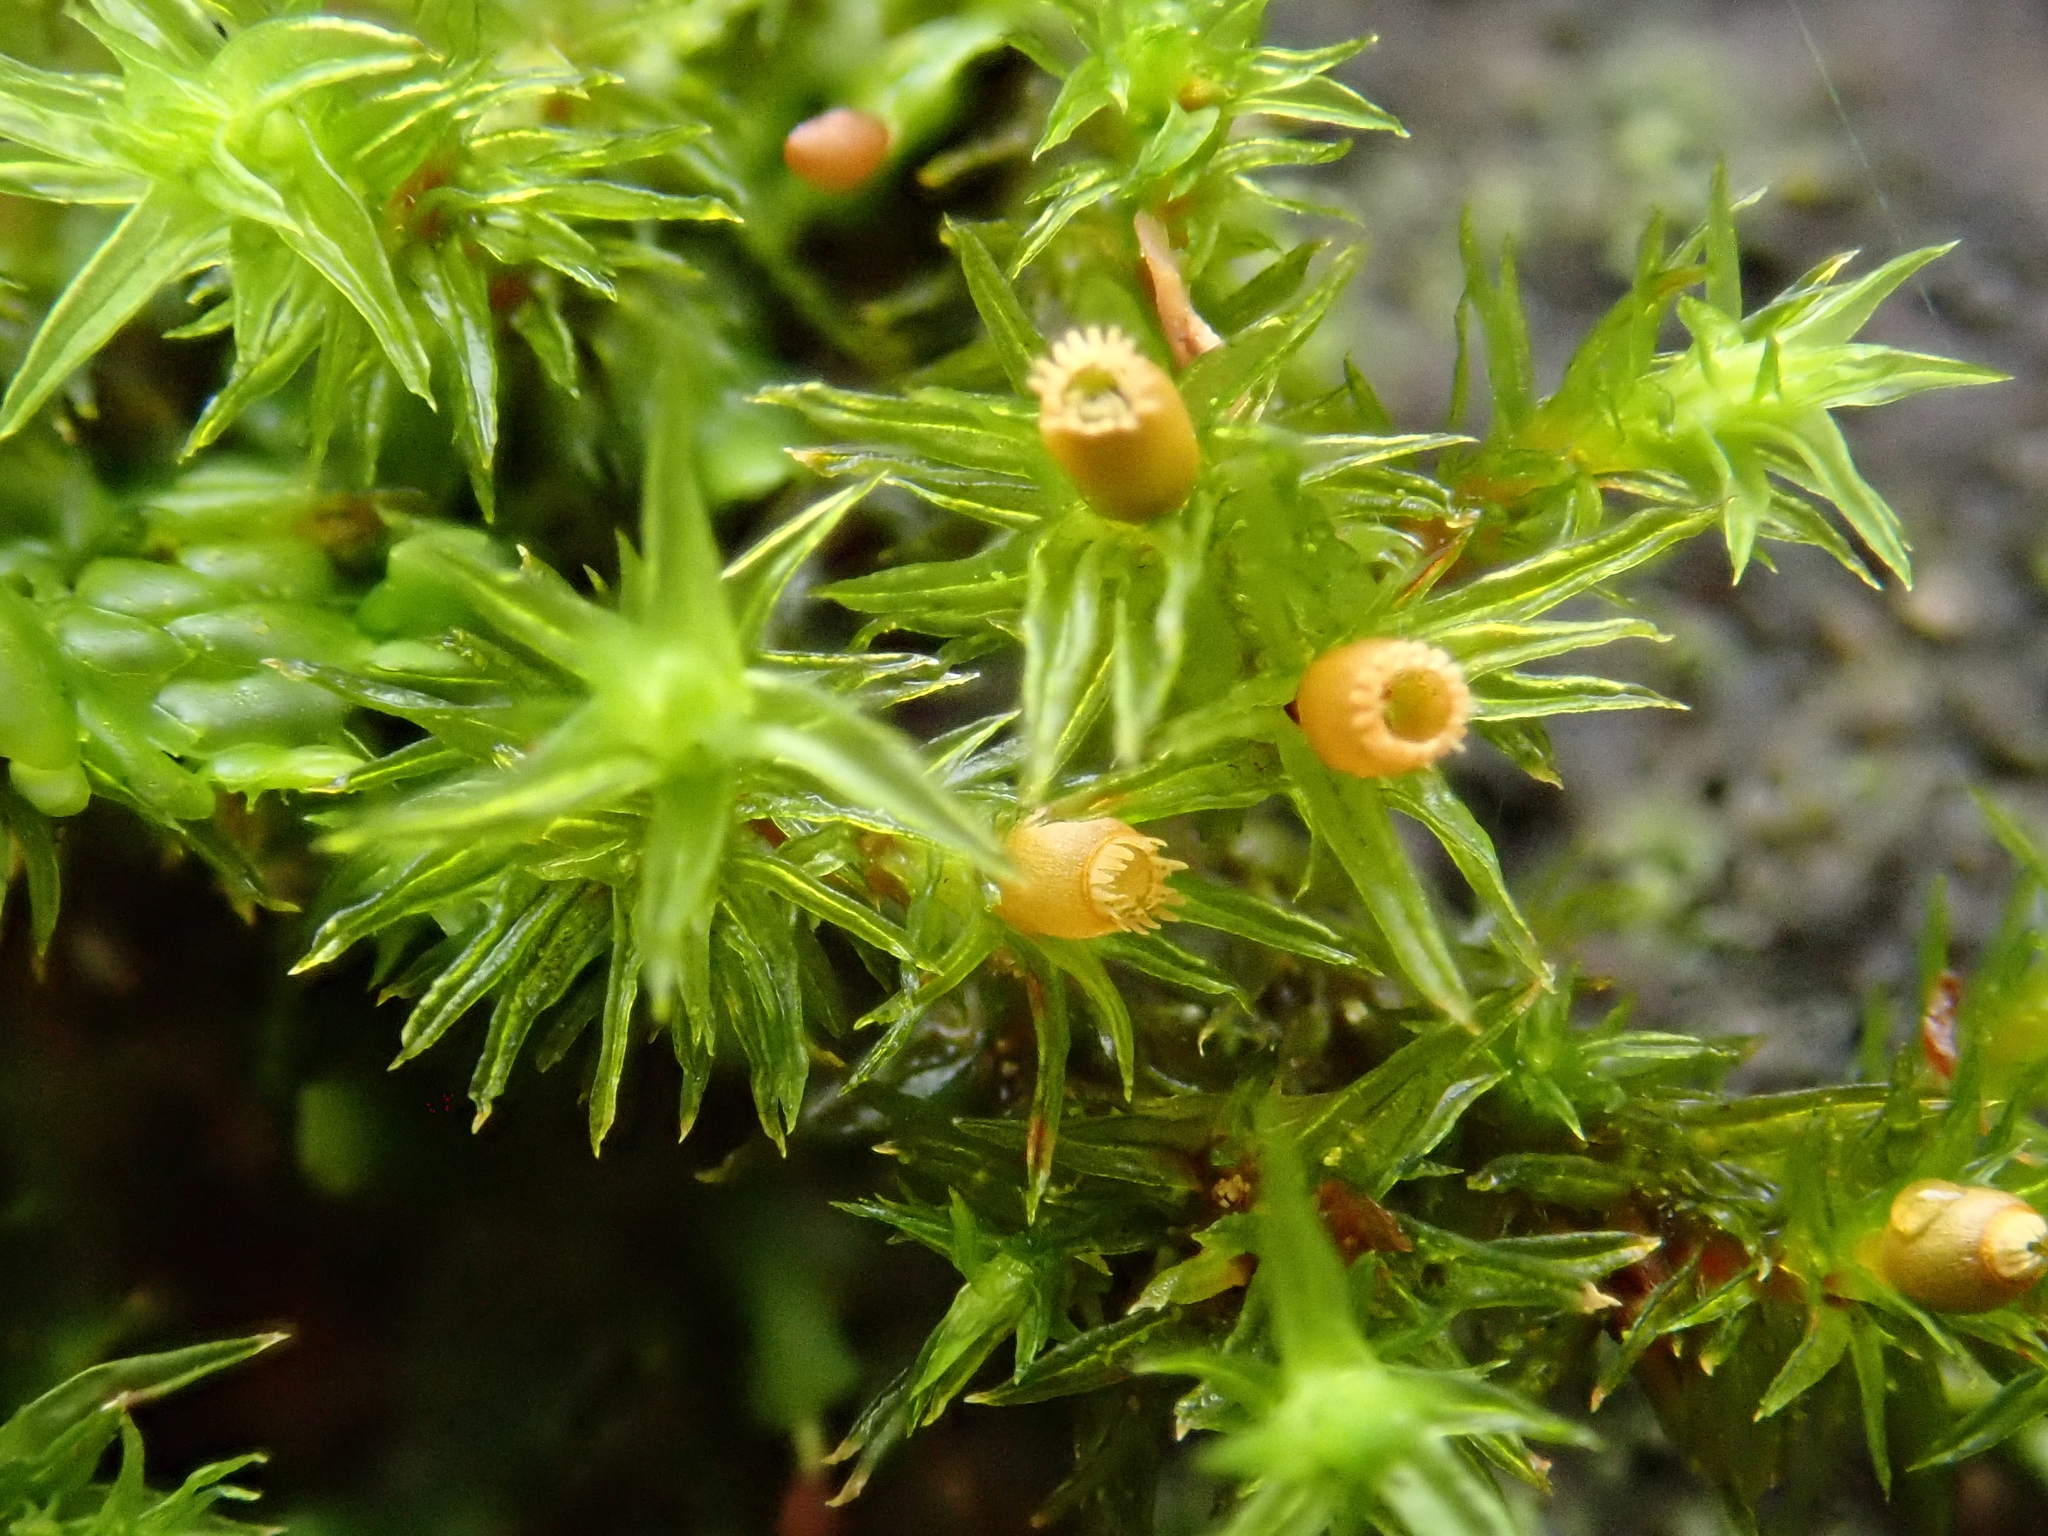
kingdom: Plantae
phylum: Bryophyta
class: Bryopsida
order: Orthotrichales
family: Orthotrichaceae
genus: Lewinskya
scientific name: Lewinskya striata
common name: Shaw's bristle-moss
